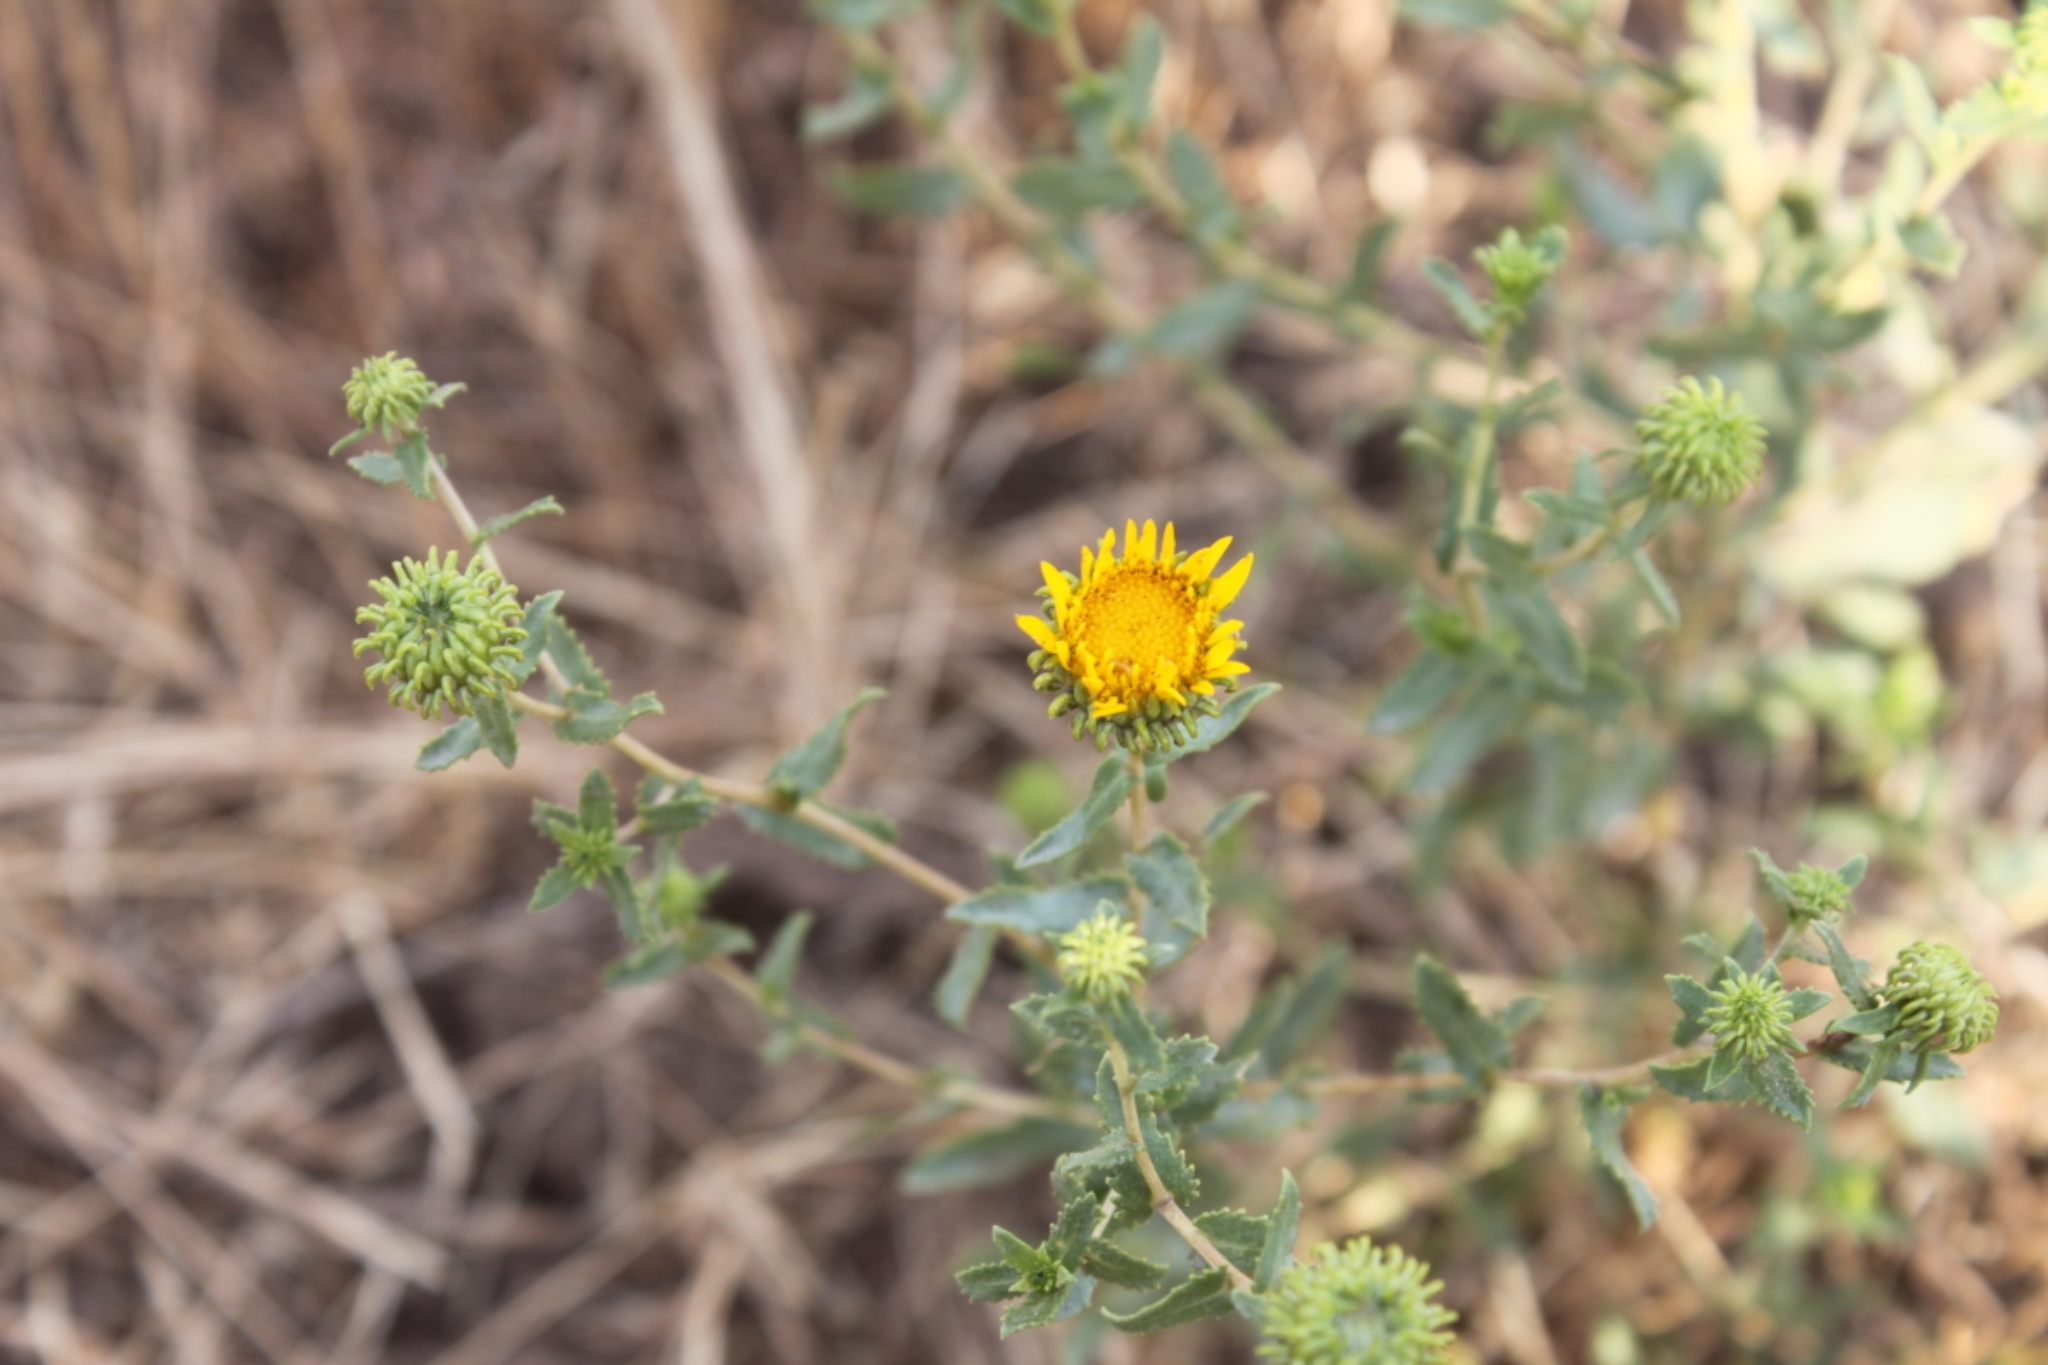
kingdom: Plantae
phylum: Tracheophyta
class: Magnoliopsida
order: Asterales
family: Asteraceae
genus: Grindelia
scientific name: Grindelia squarrosa
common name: Curly-cup gumweed
